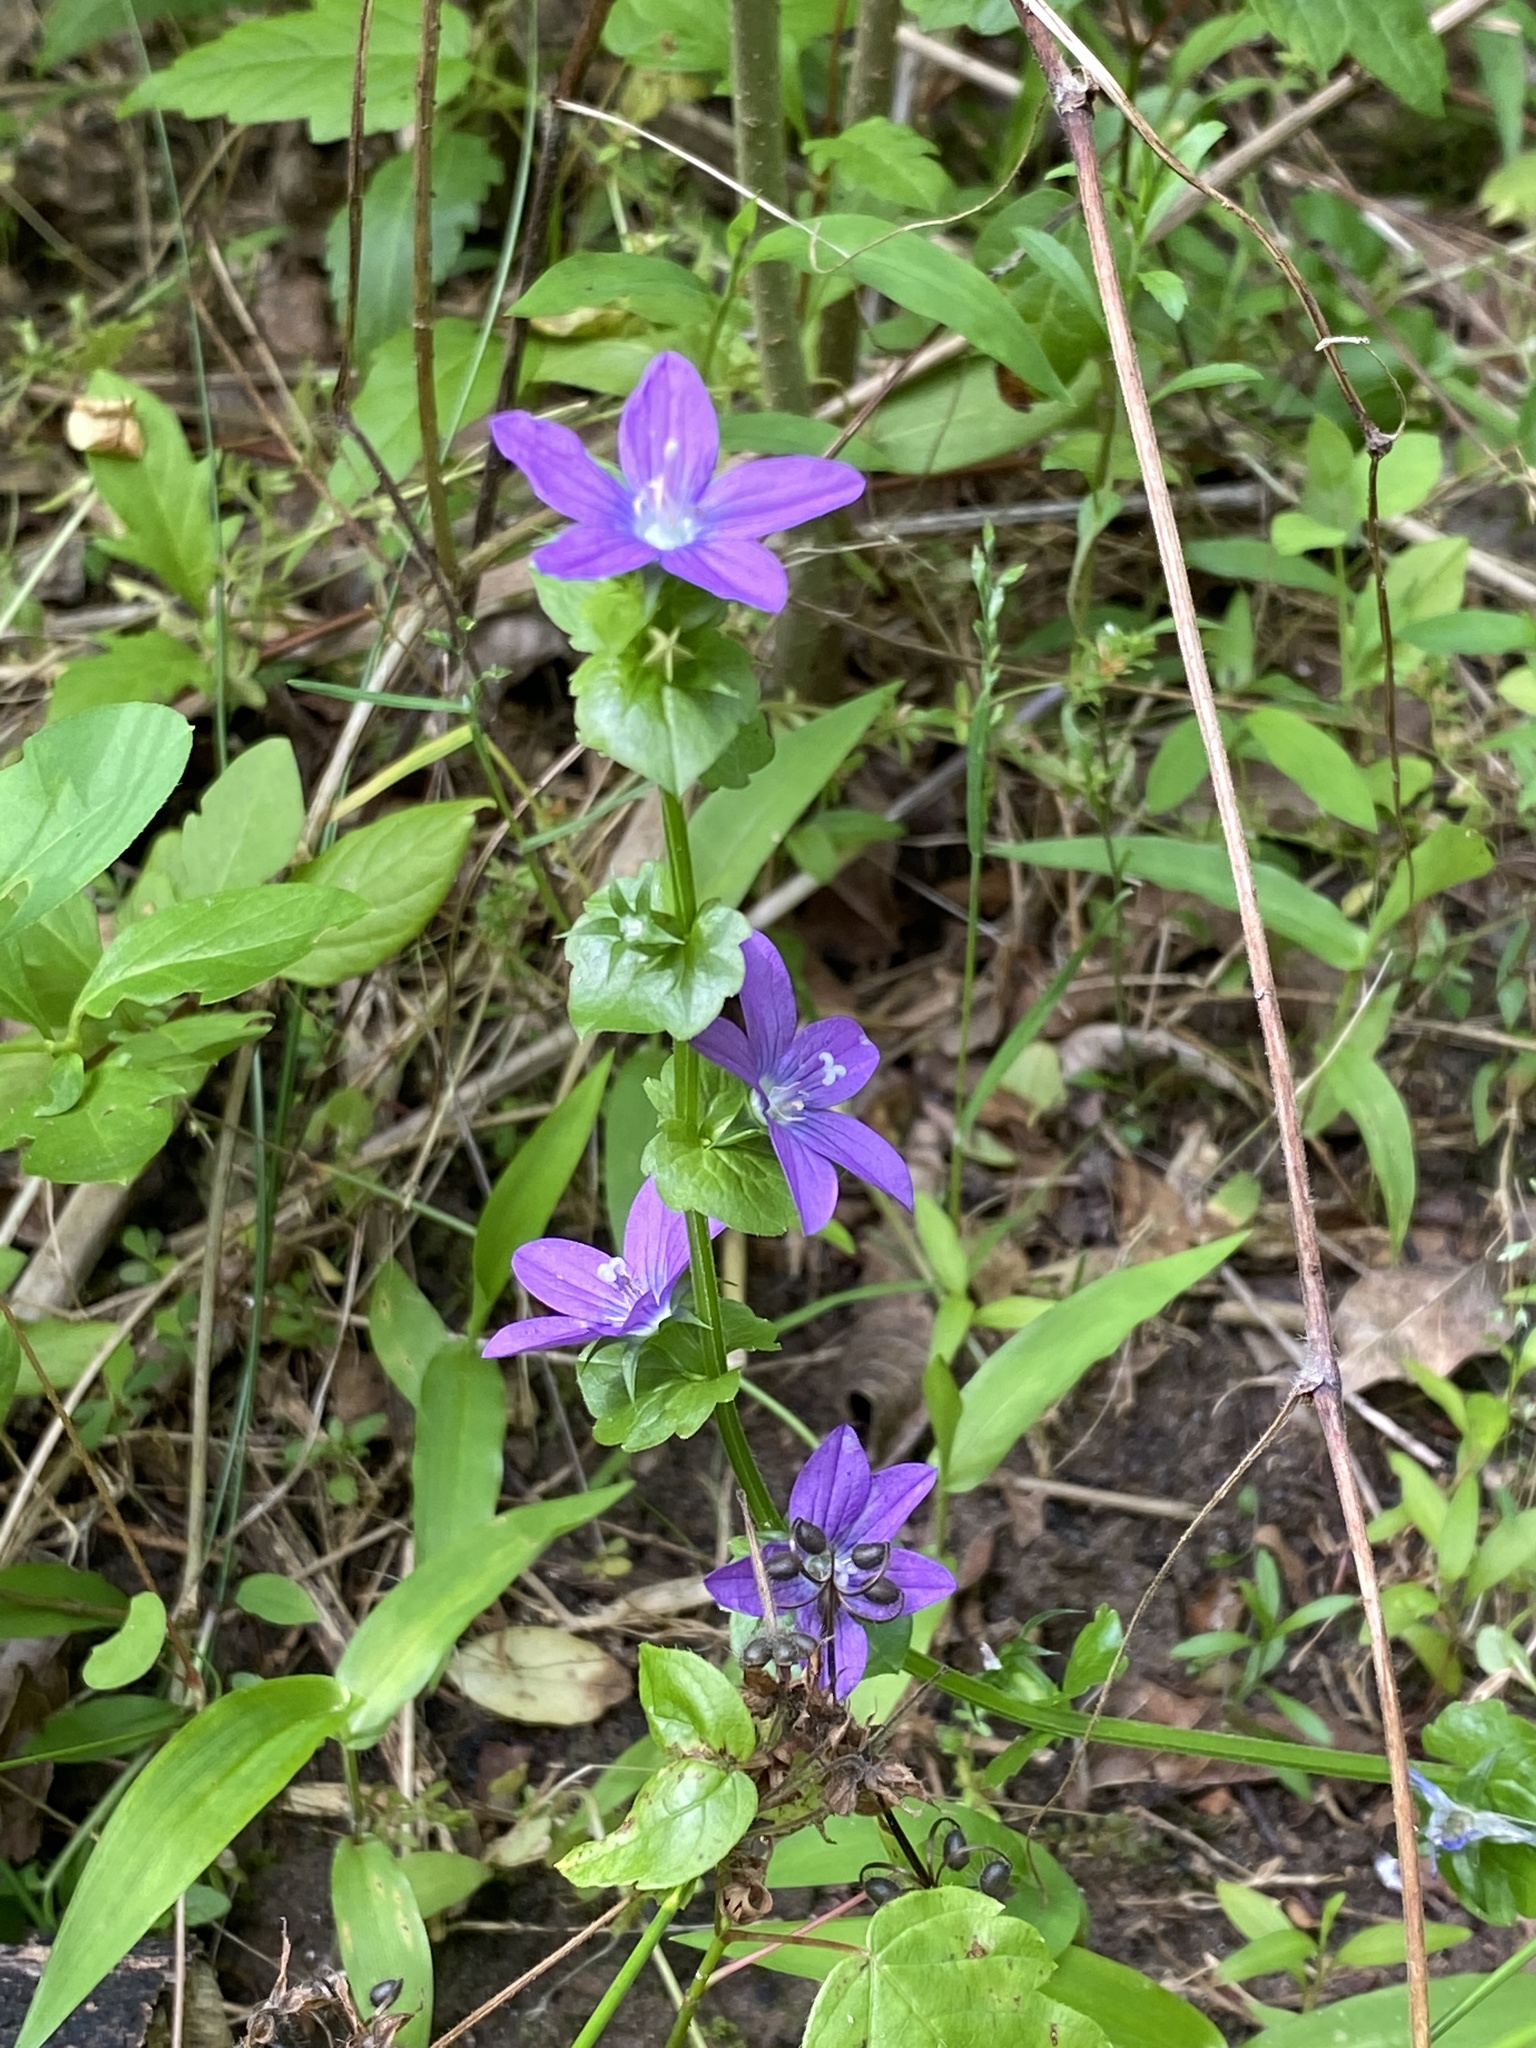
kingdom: Plantae
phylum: Tracheophyta
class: Magnoliopsida
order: Asterales
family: Campanulaceae
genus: Triodanis
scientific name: Triodanis perfoliata
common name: Clasping venus' looking-glass
